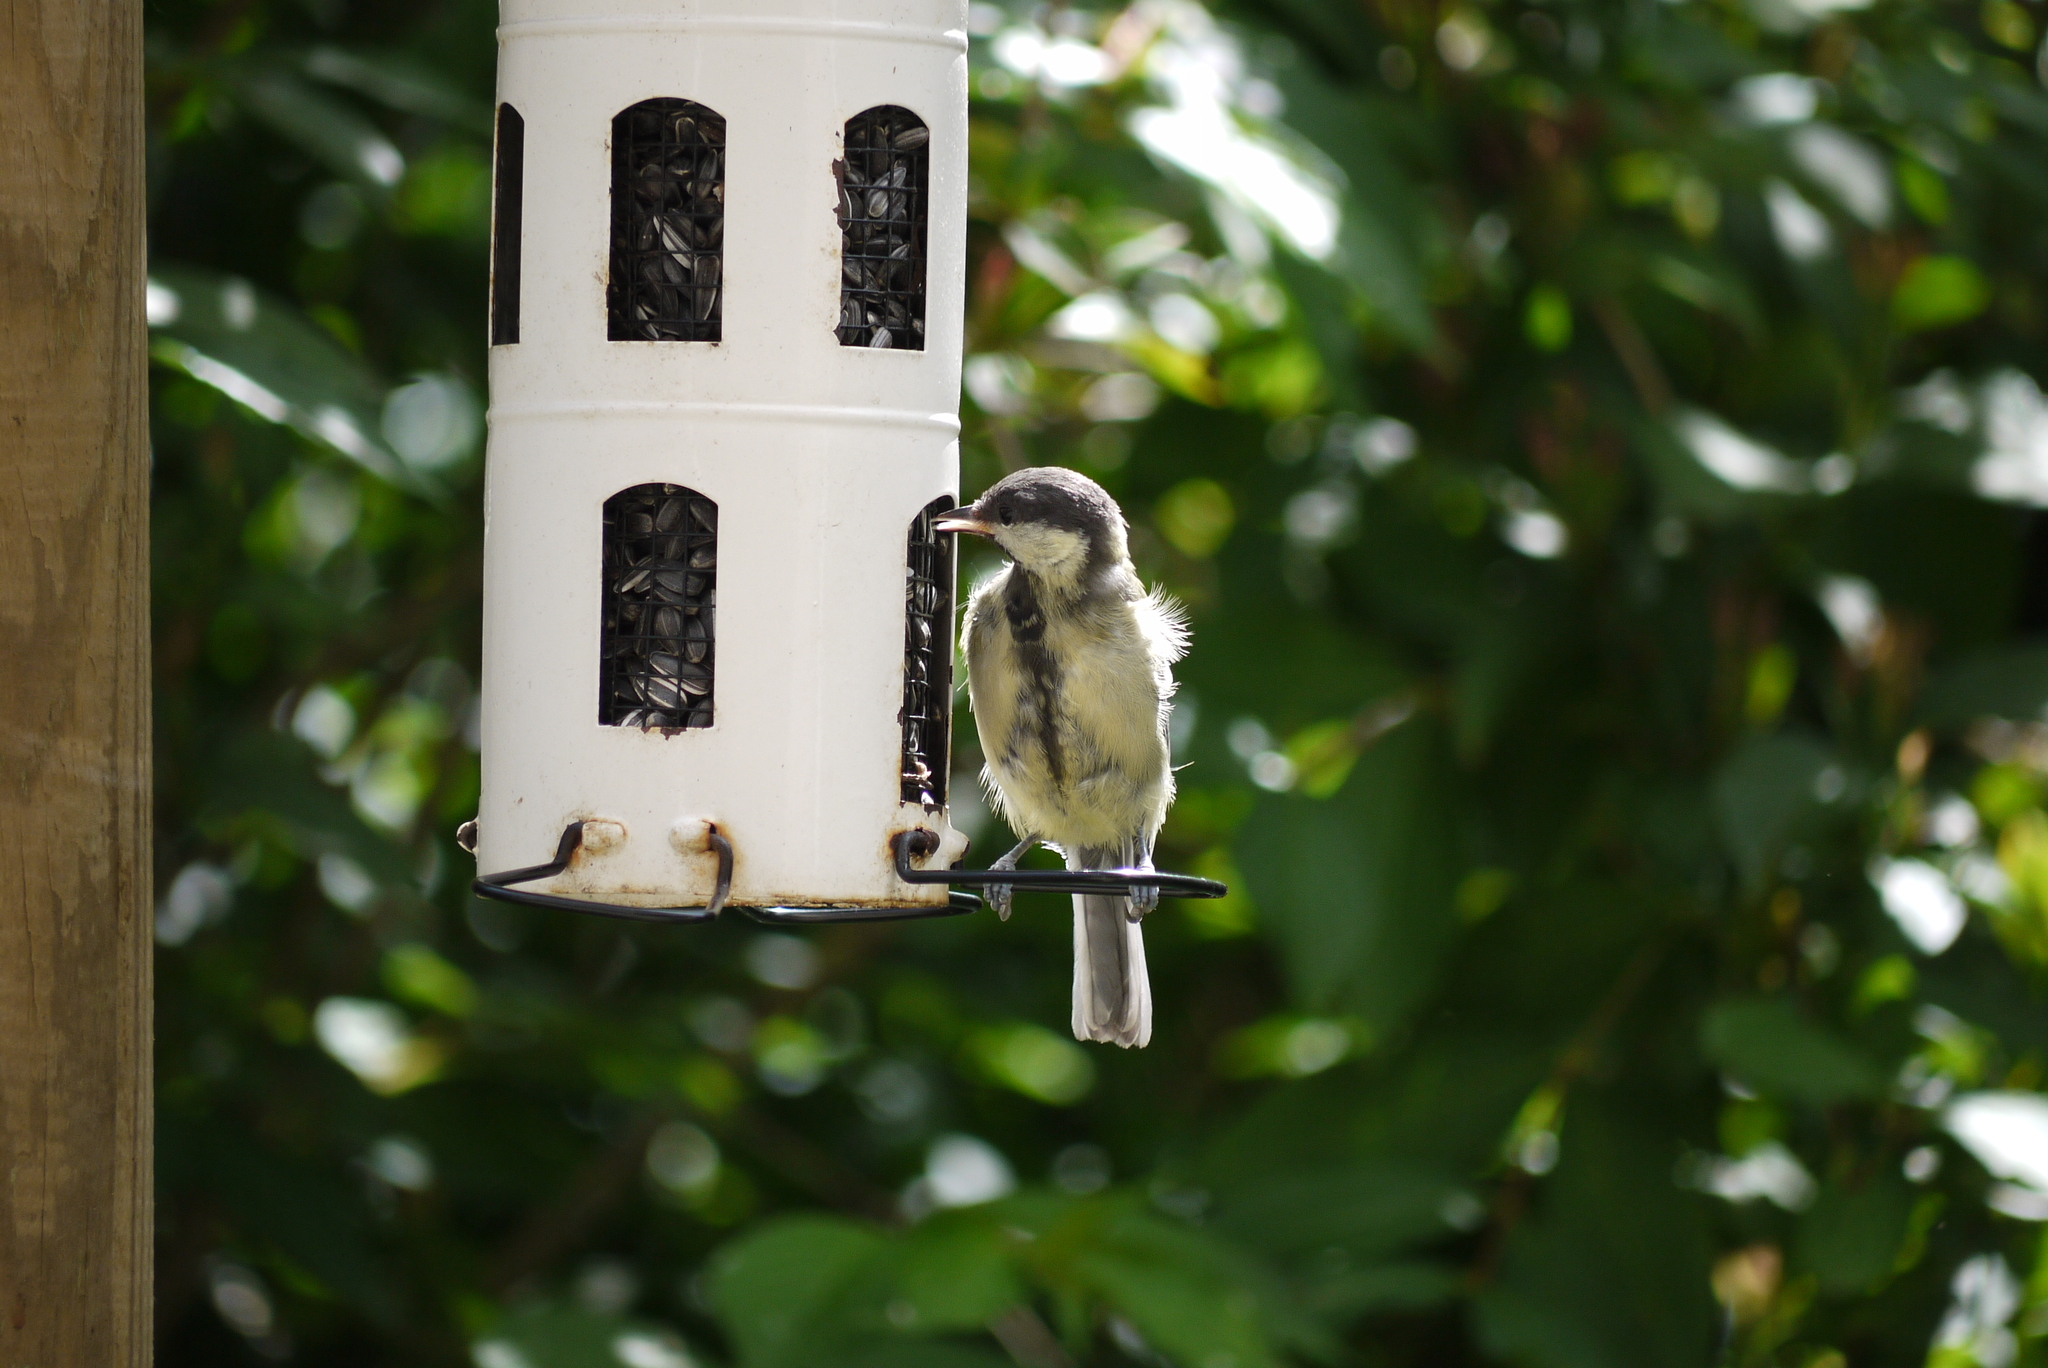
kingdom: Animalia
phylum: Chordata
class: Aves
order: Passeriformes
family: Paridae
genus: Parus
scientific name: Parus major
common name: Great tit
